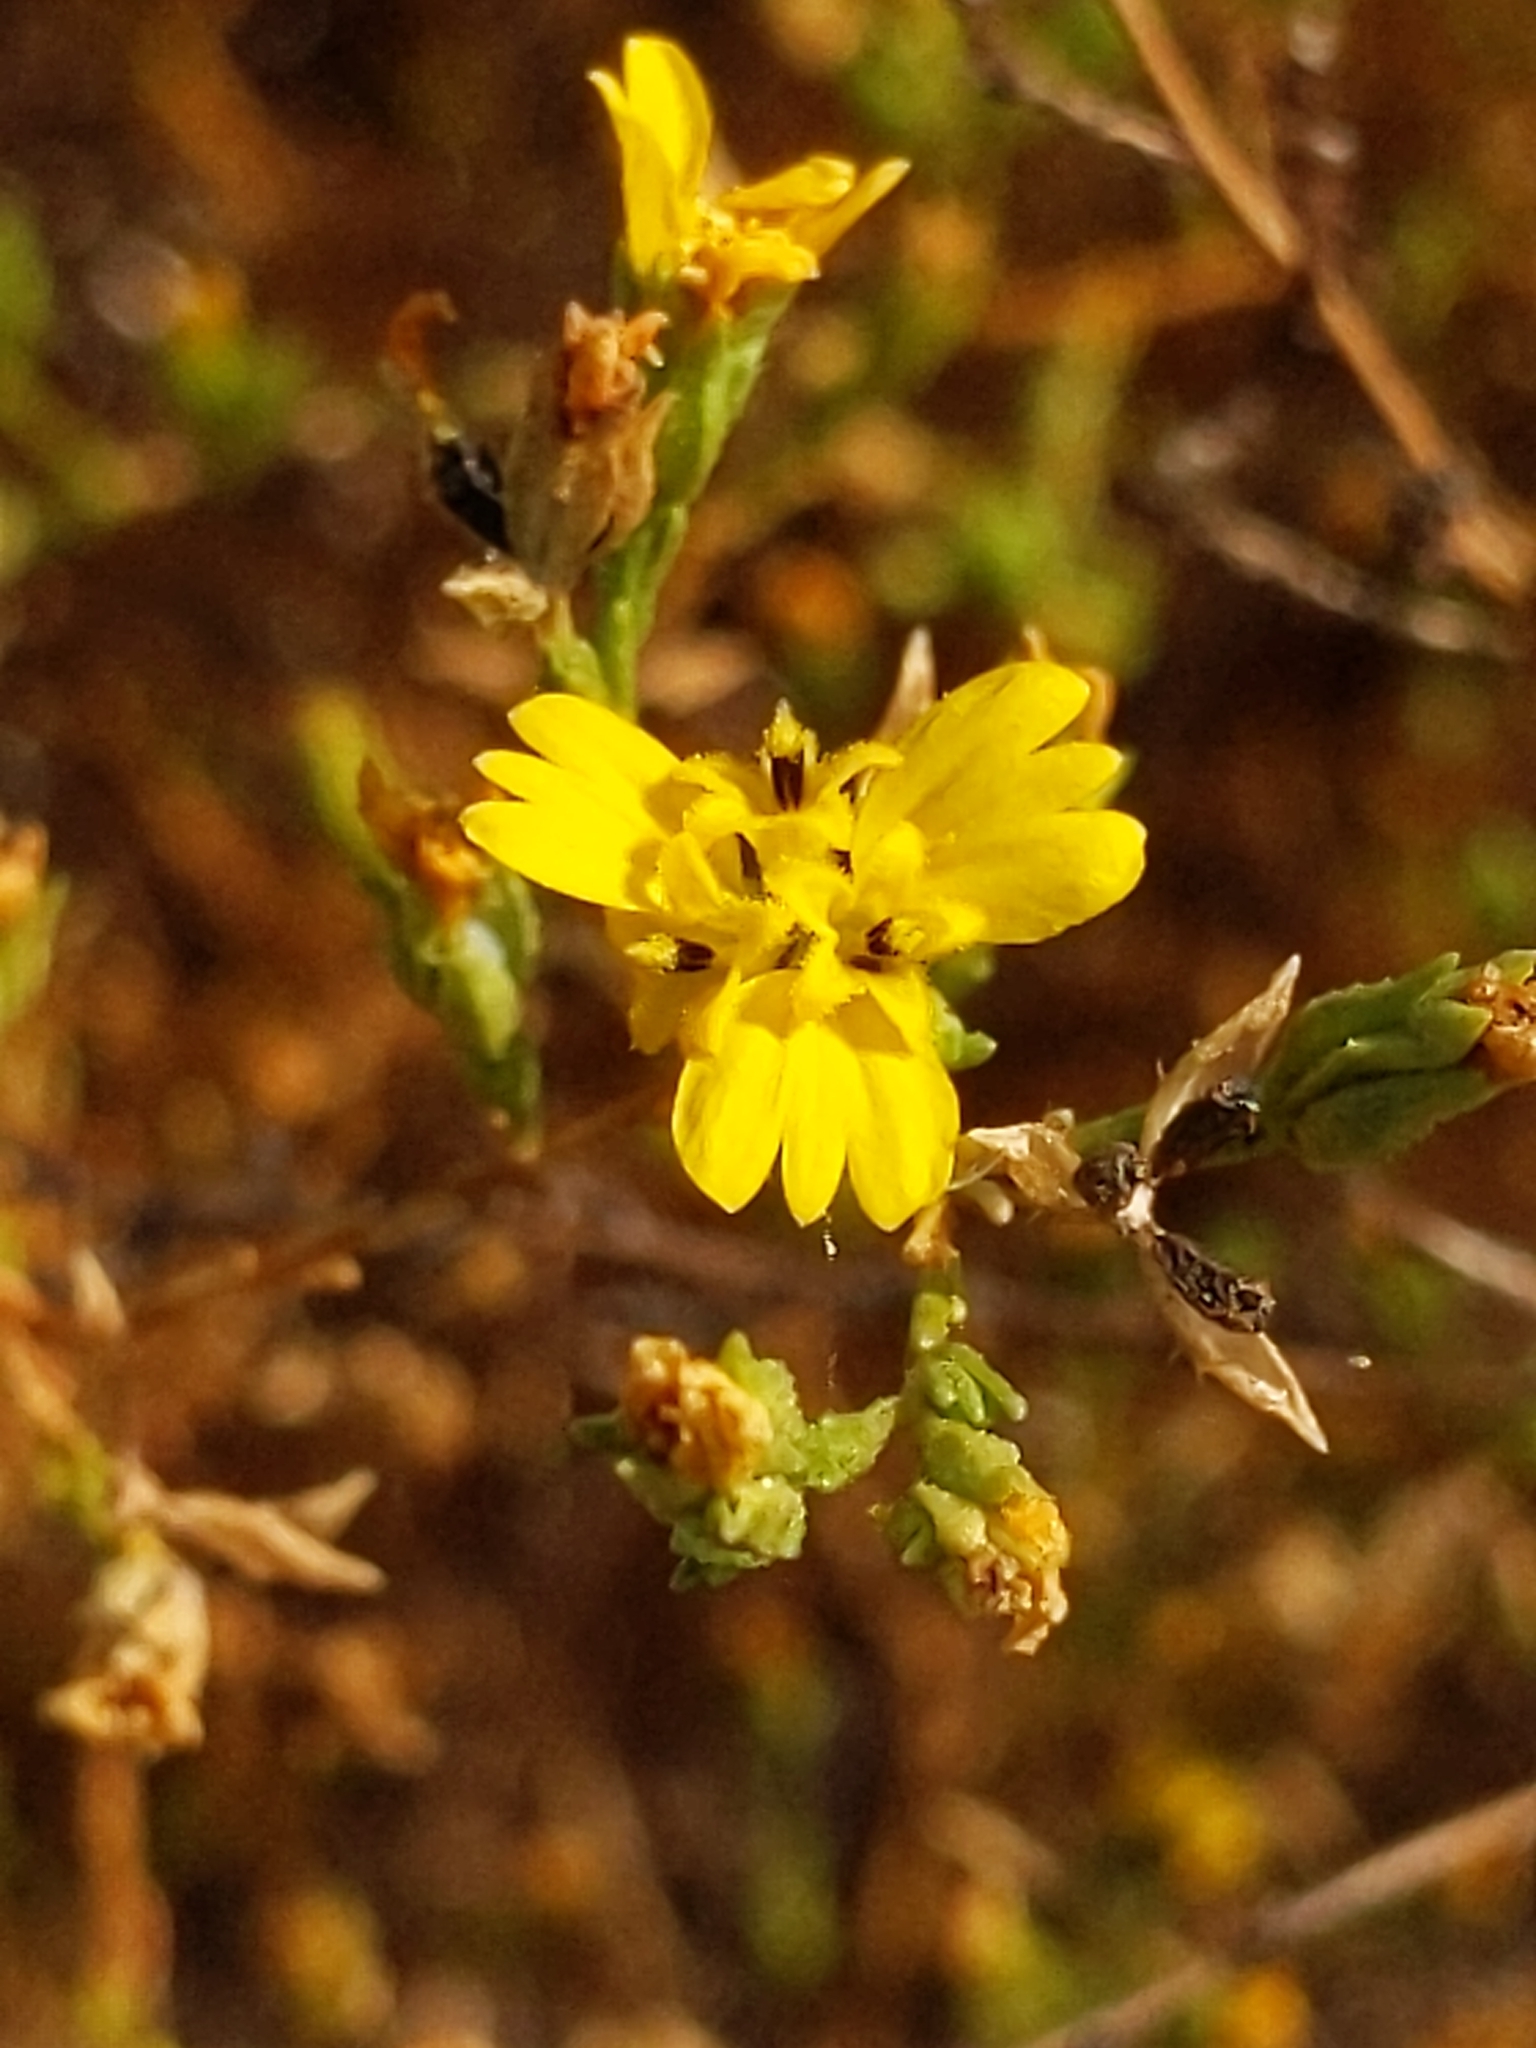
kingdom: Plantae
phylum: Tracheophyta
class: Magnoliopsida
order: Asterales
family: Asteraceae
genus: Deinandra
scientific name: Deinandra lobbii
